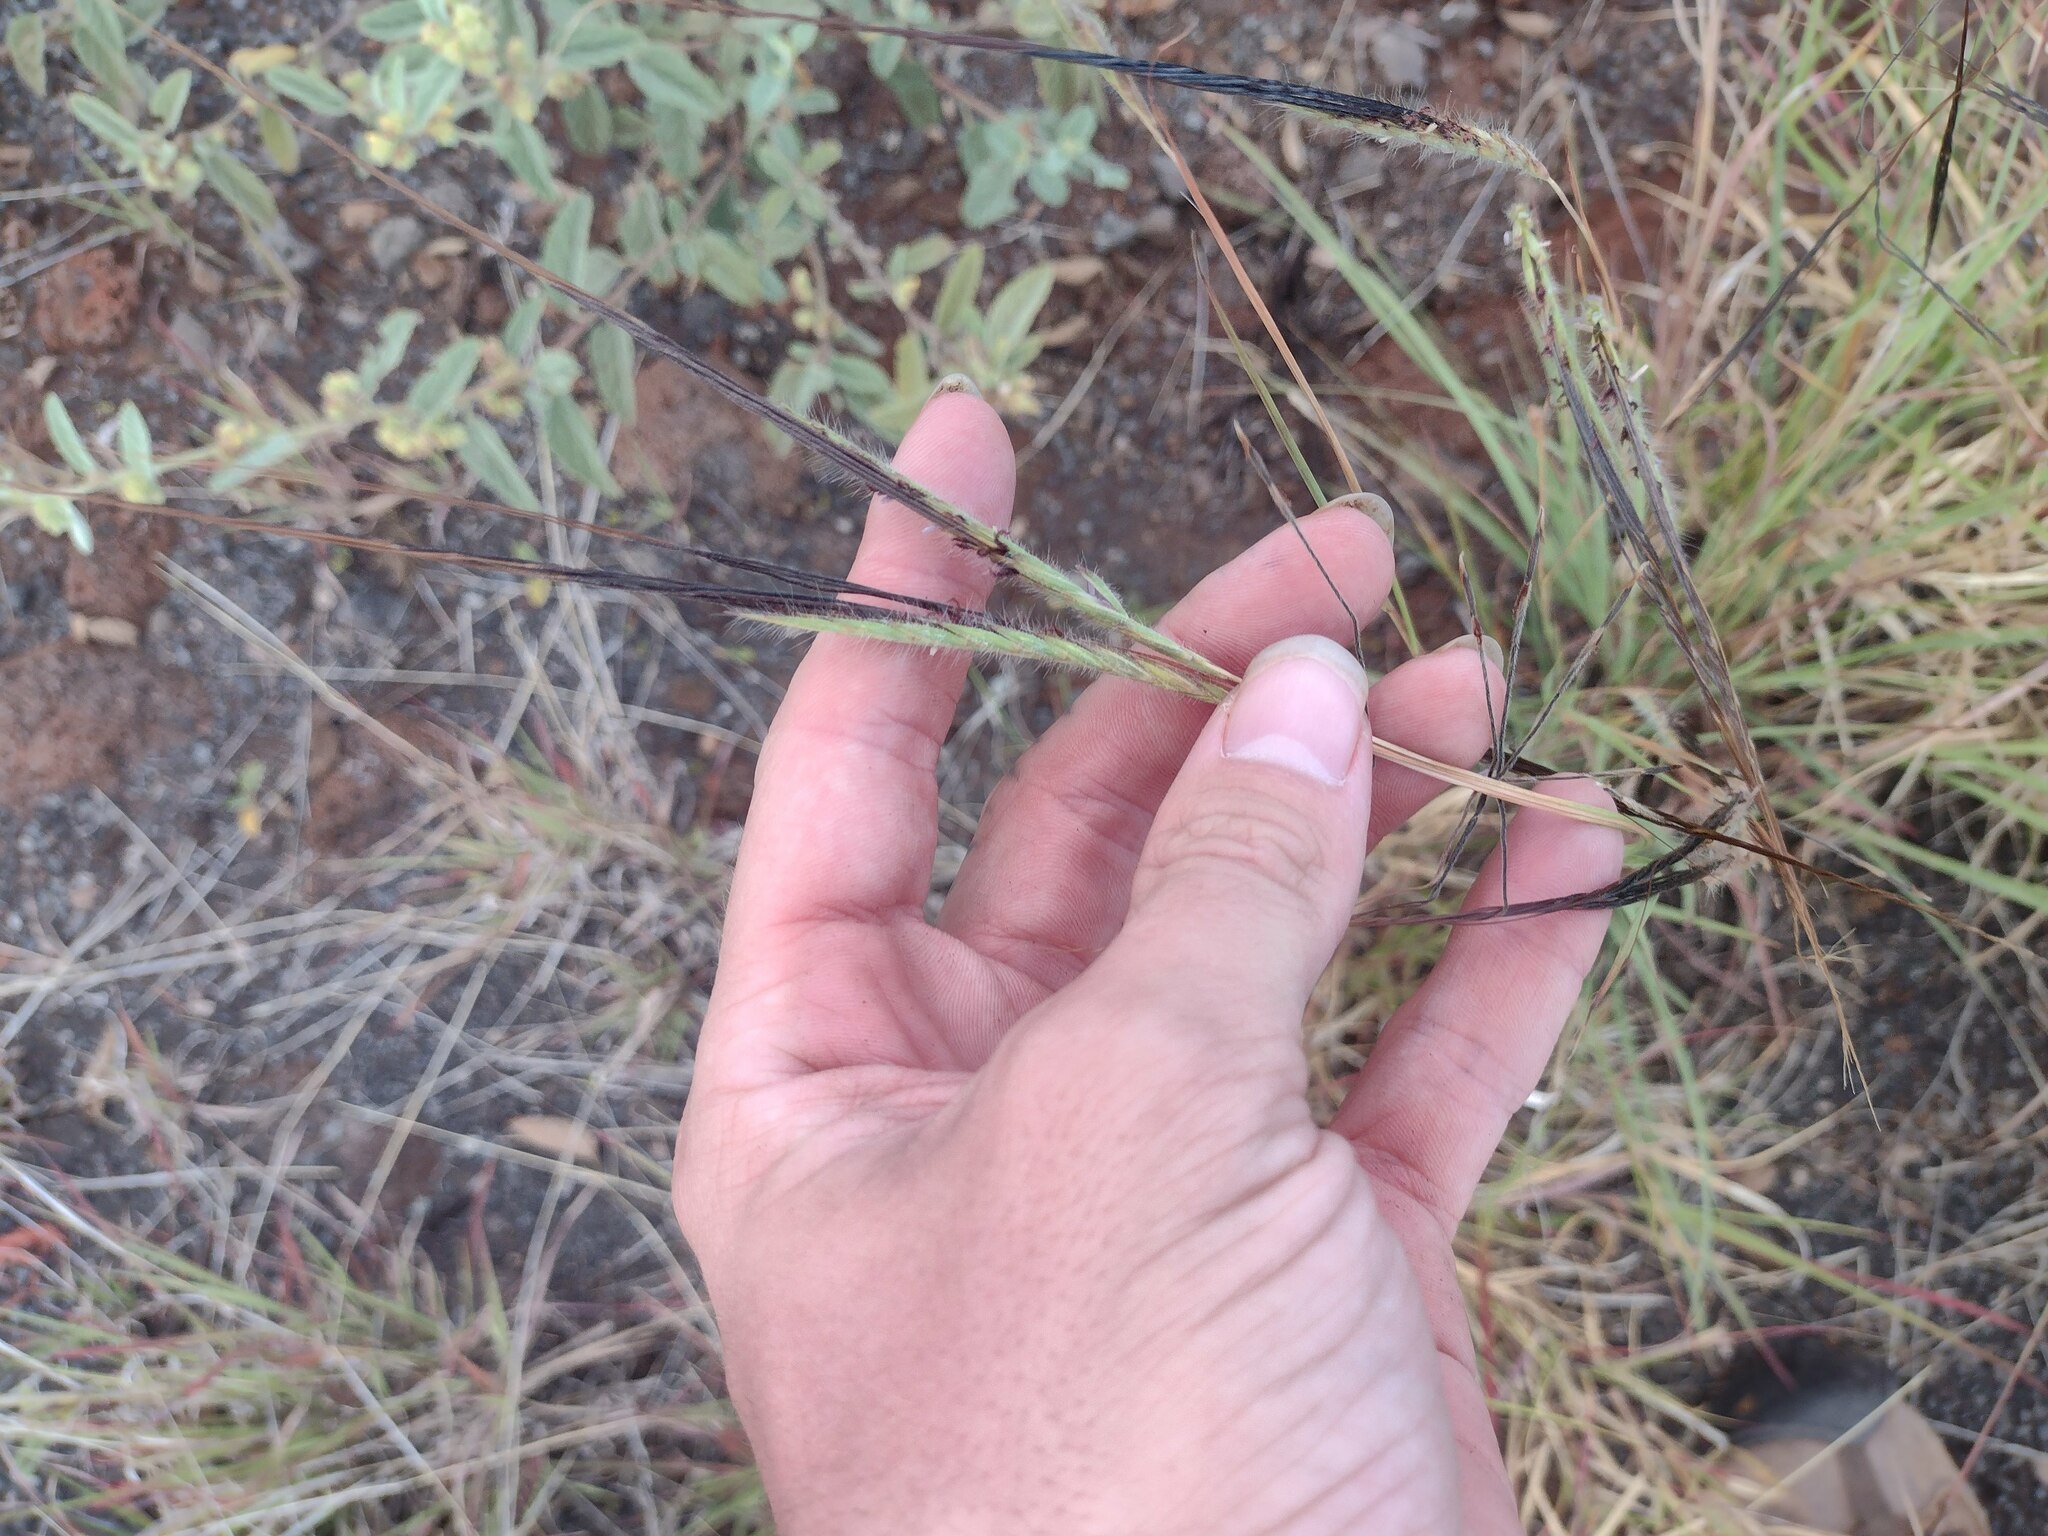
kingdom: Plantae
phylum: Tracheophyta
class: Liliopsida
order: Poales
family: Poaceae
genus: Heteropogon
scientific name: Heteropogon contortus
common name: Tanglehead
